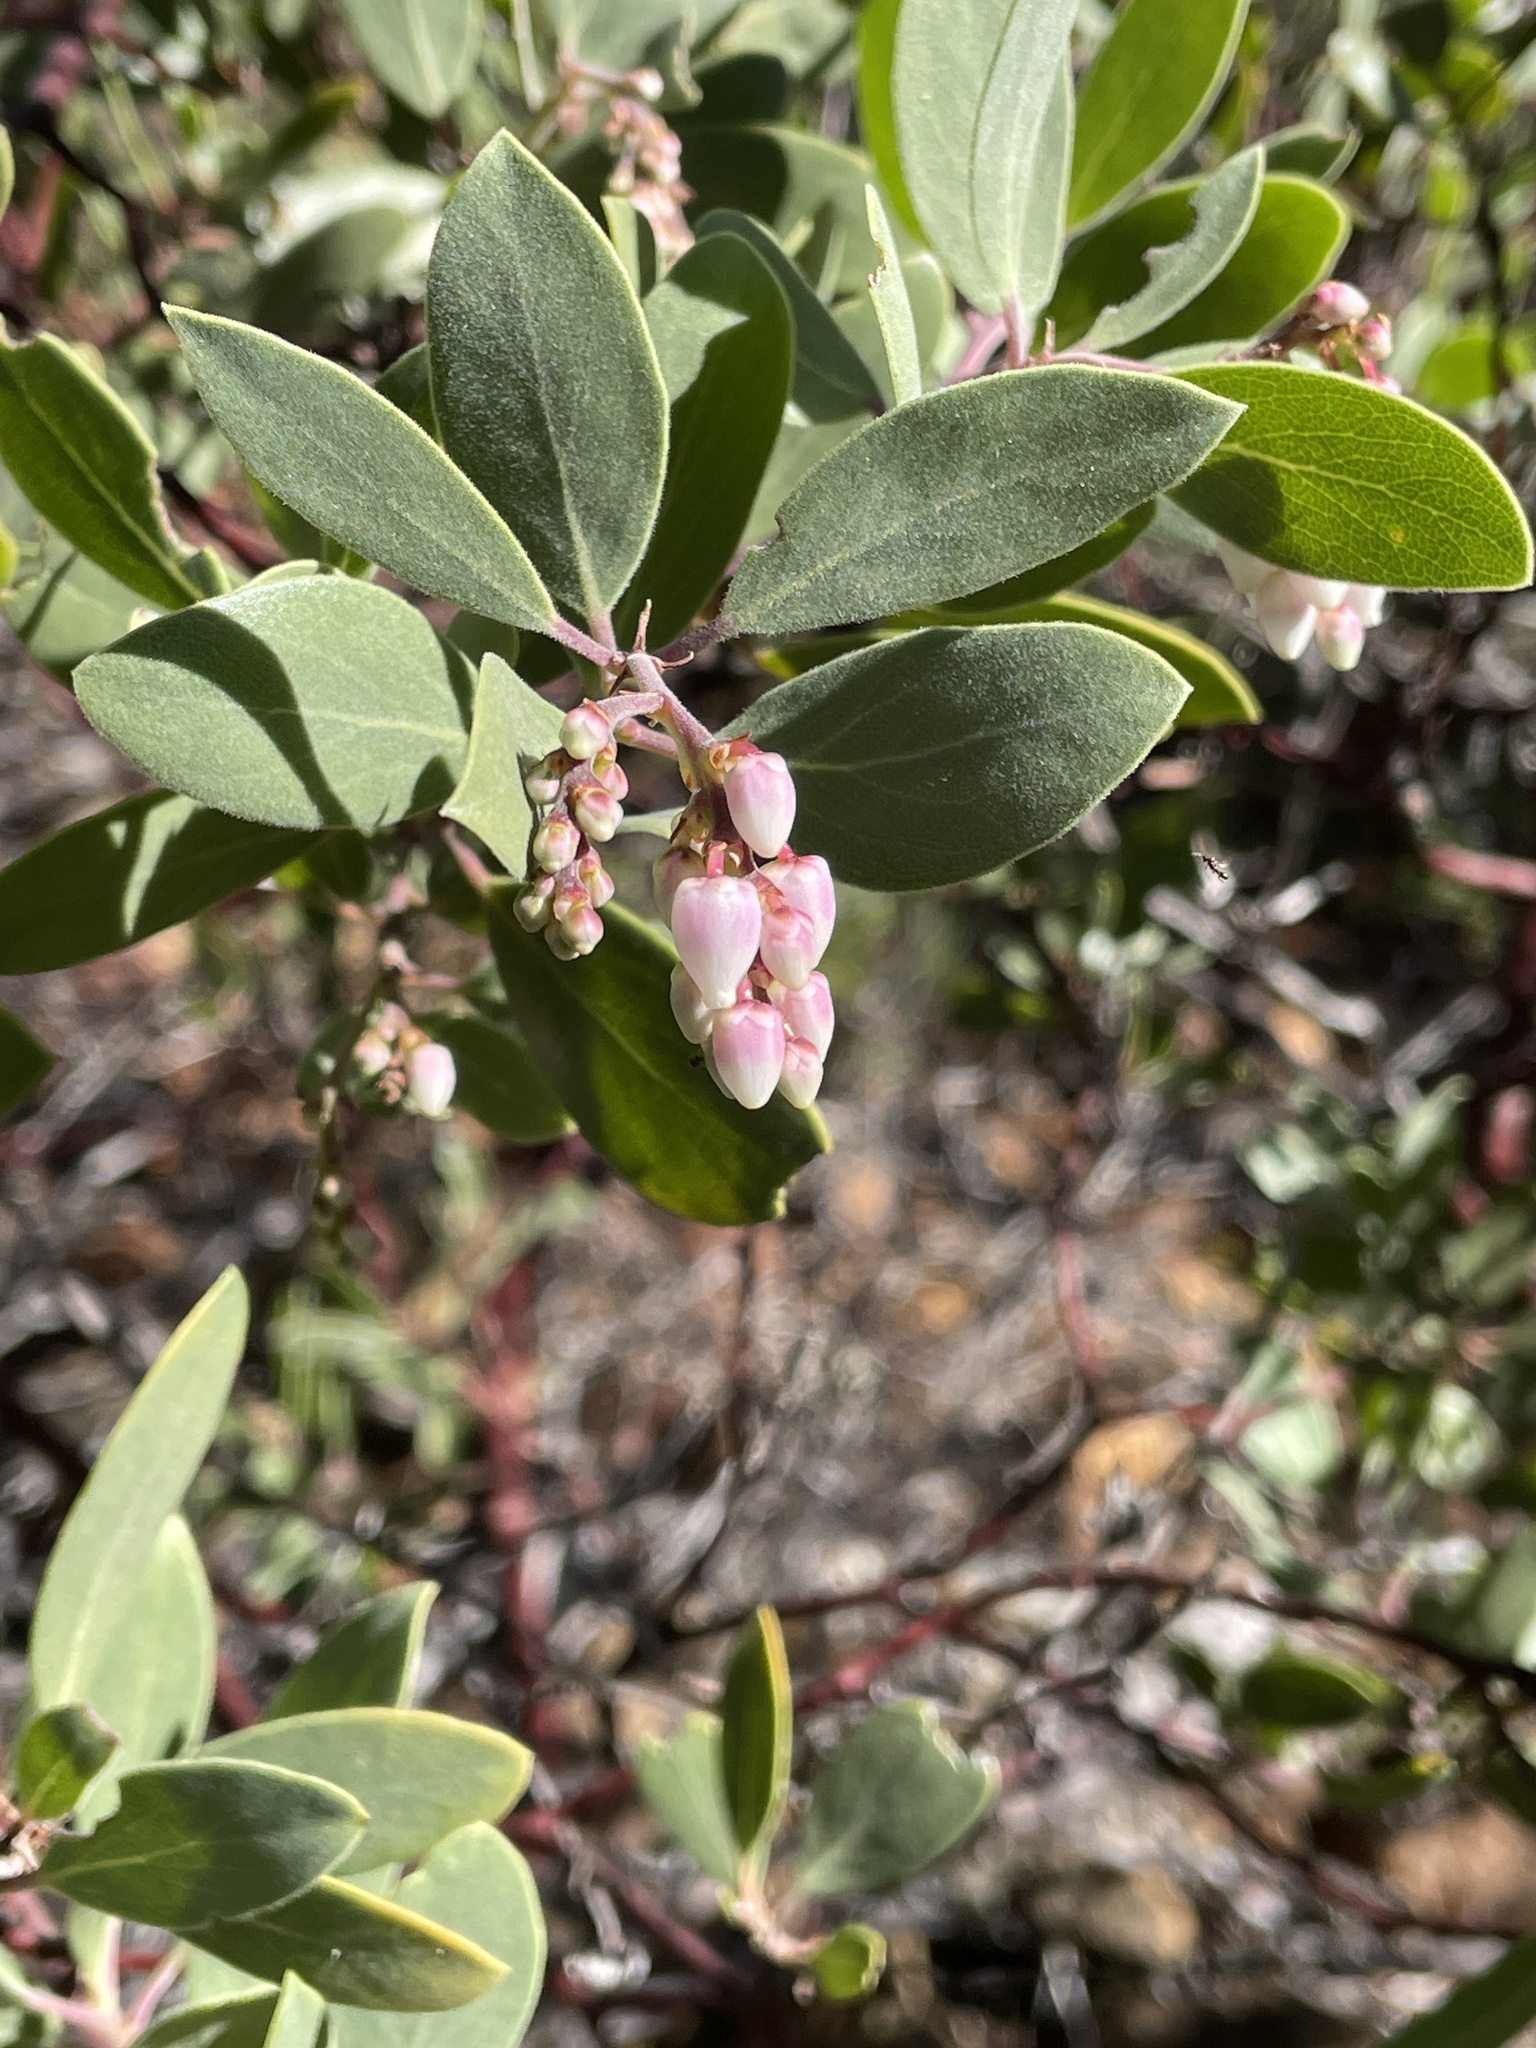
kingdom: Plantae
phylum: Tracheophyta
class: Magnoliopsida
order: Ericales
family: Ericaceae
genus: Arctostaphylos
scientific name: Arctostaphylos bakeri
